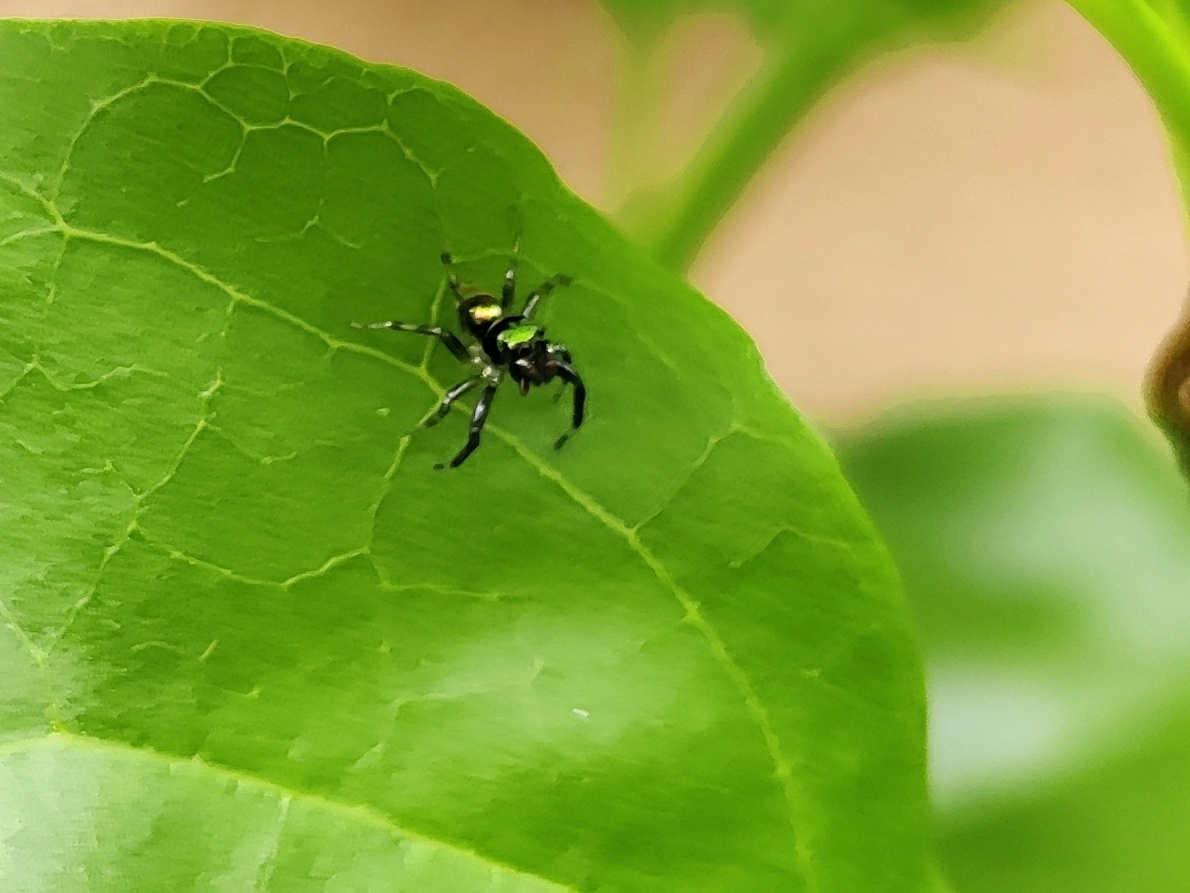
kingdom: Animalia
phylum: Arthropoda
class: Arachnida
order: Araneae
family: Salticidae
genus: Phintella
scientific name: Phintella vittata
